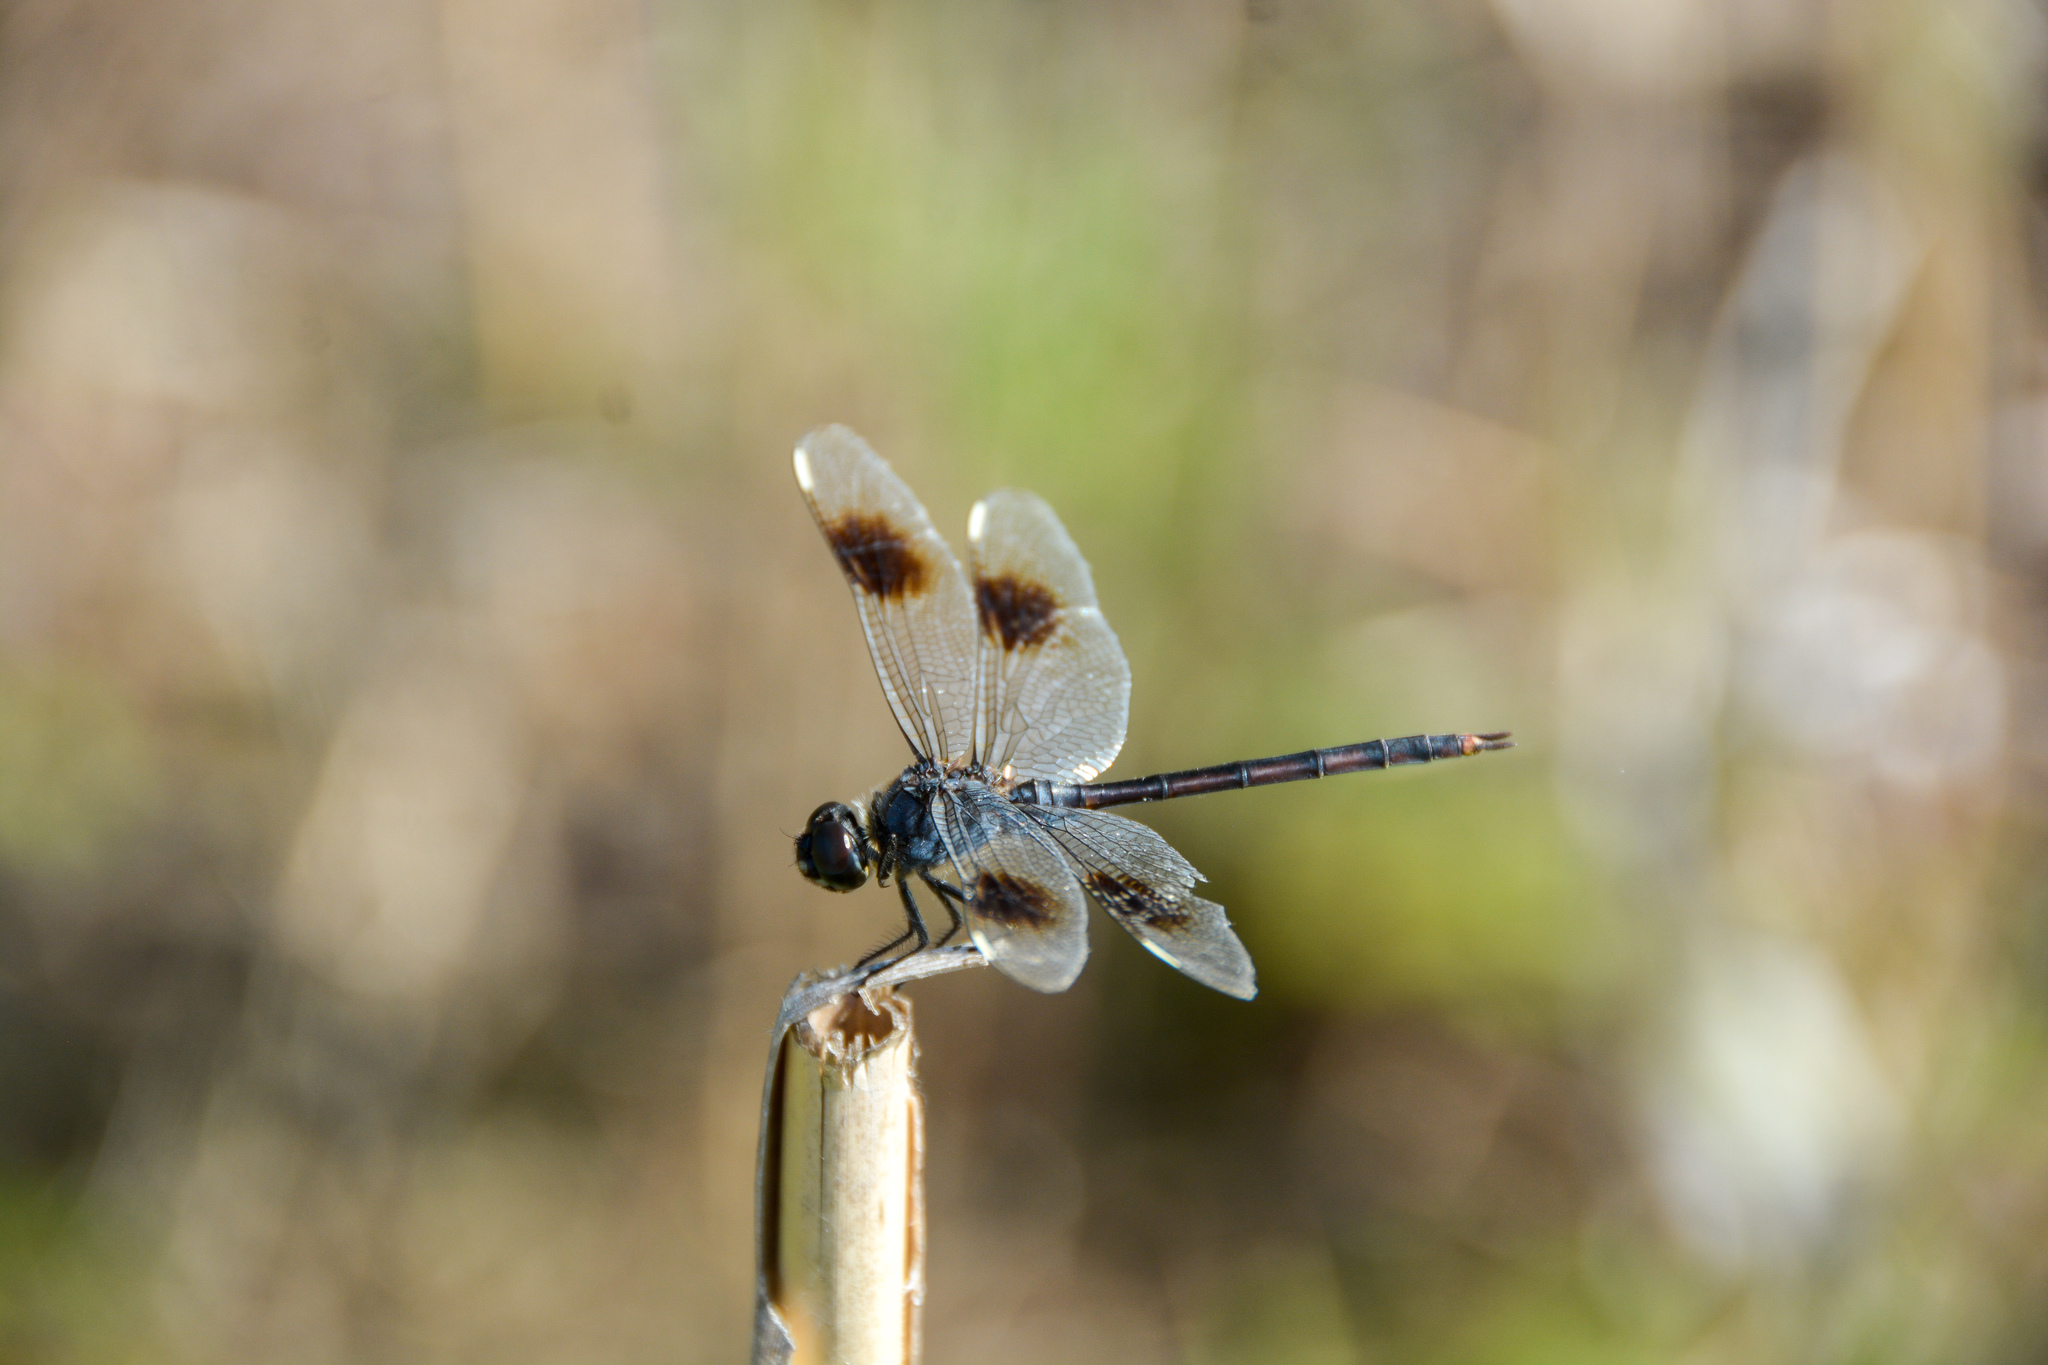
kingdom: Animalia
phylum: Arthropoda
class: Insecta
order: Odonata
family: Libellulidae
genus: Brachymesia
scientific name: Brachymesia gravida
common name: Four-spotted pennant
